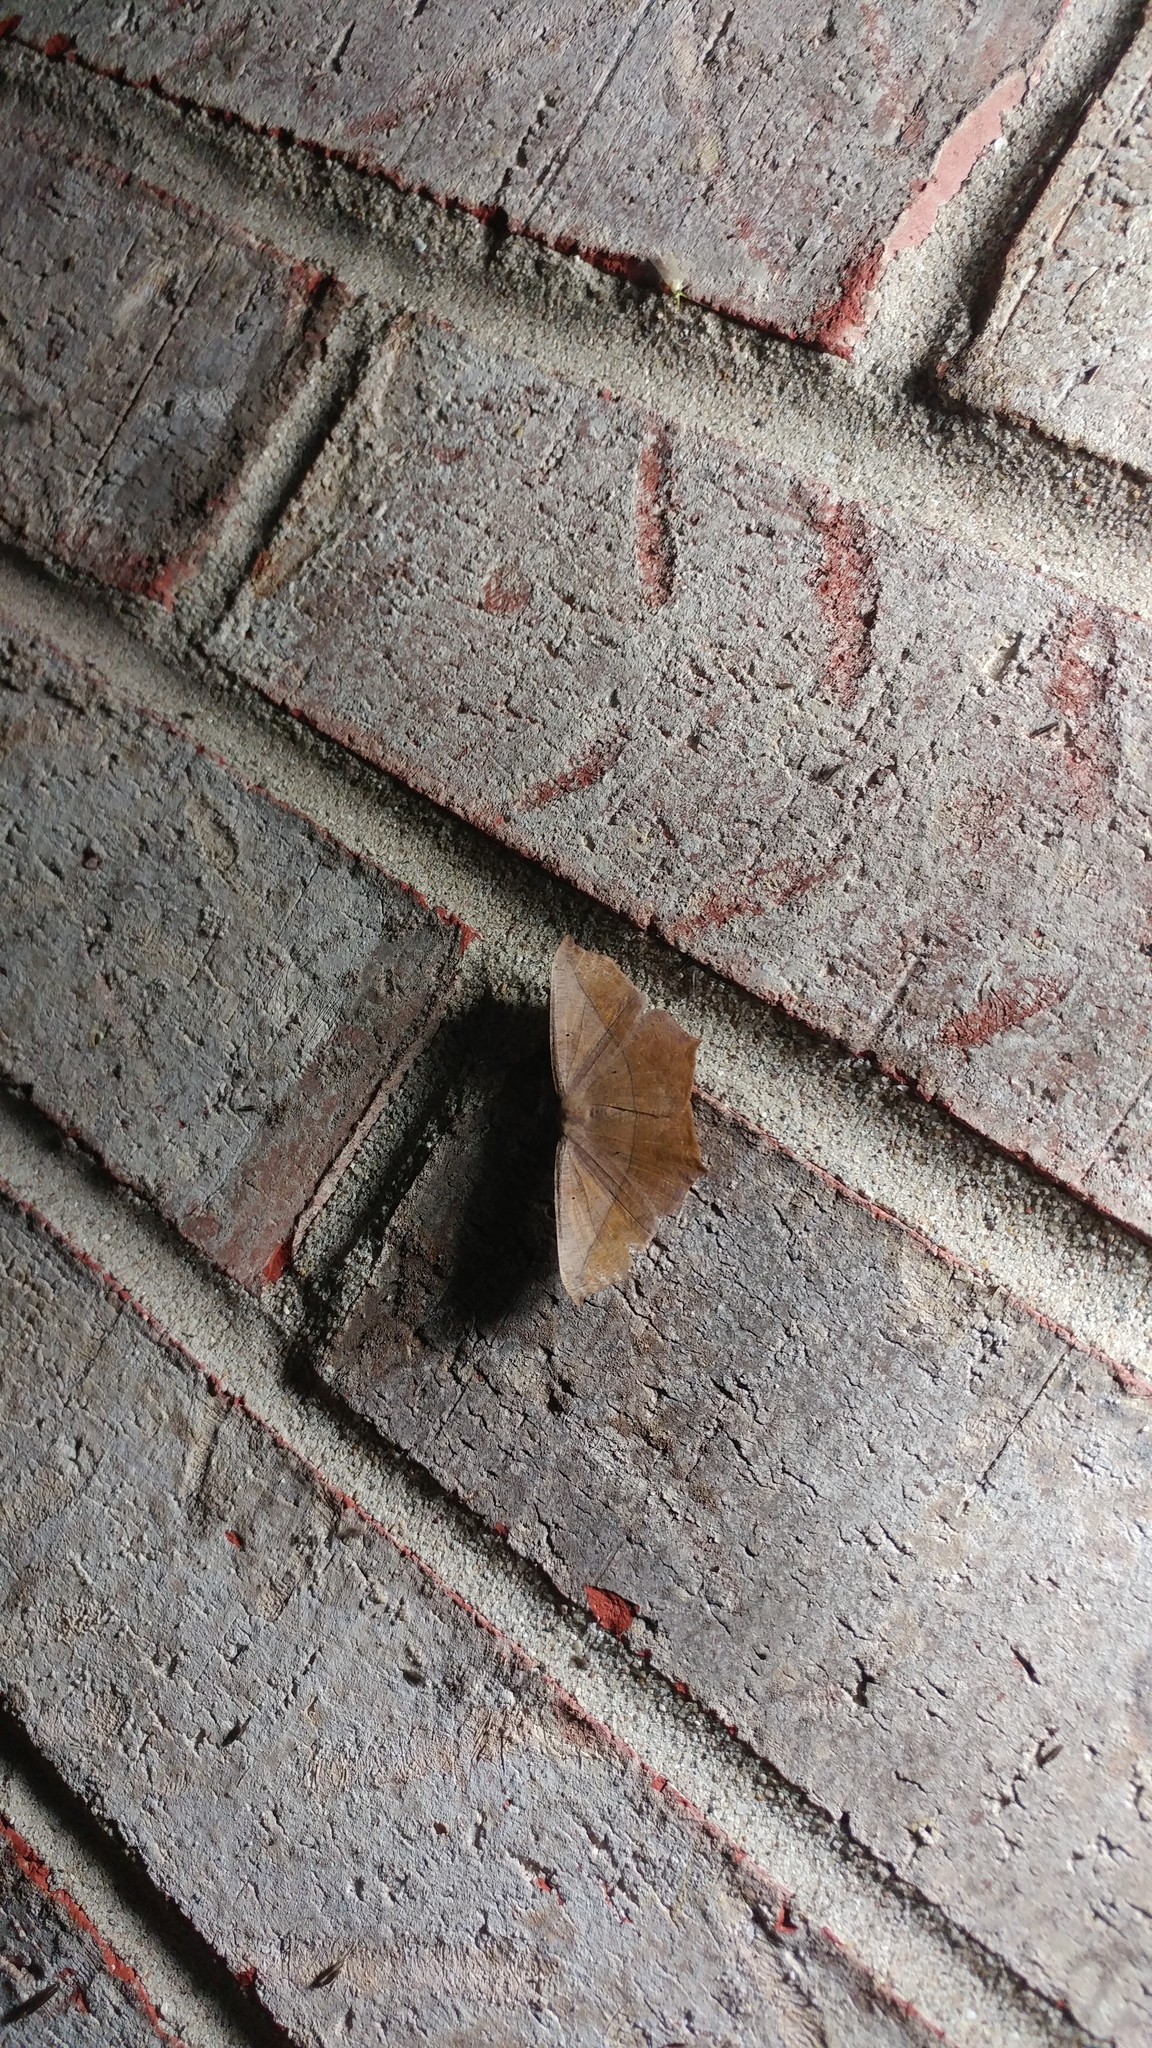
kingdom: Animalia
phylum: Arthropoda
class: Insecta
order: Lepidoptera
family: Geometridae
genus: Prochoerodes
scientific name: Prochoerodes lineola
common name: Large maple spanworm
